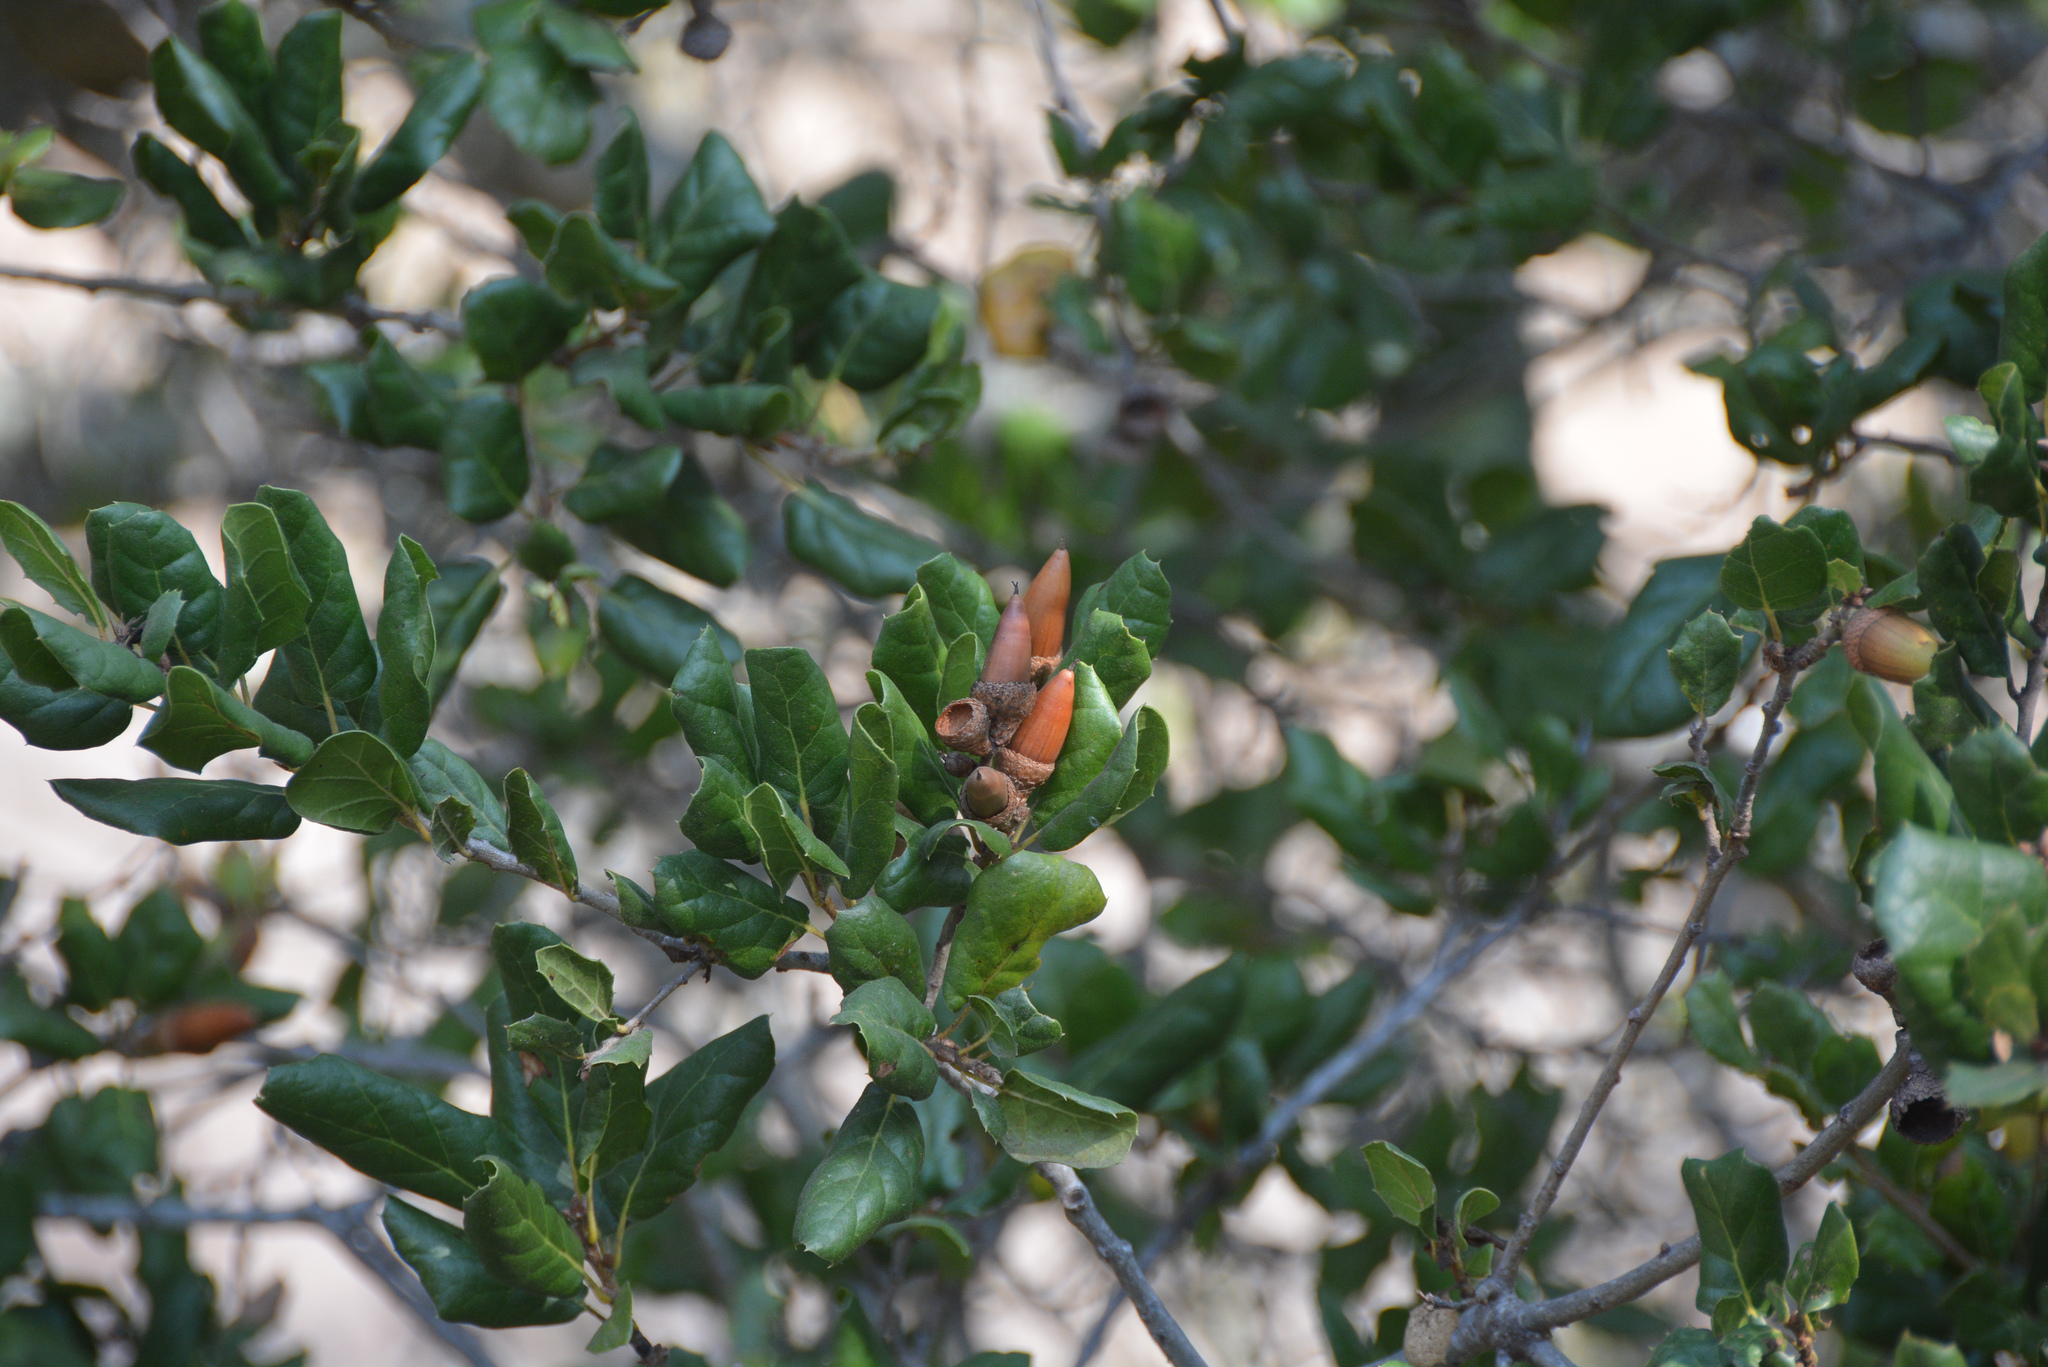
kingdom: Plantae
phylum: Tracheophyta
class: Magnoliopsida
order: Fagales
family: Fagaceae
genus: Quercus
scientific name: Quercus agrifolia
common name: California live oak
